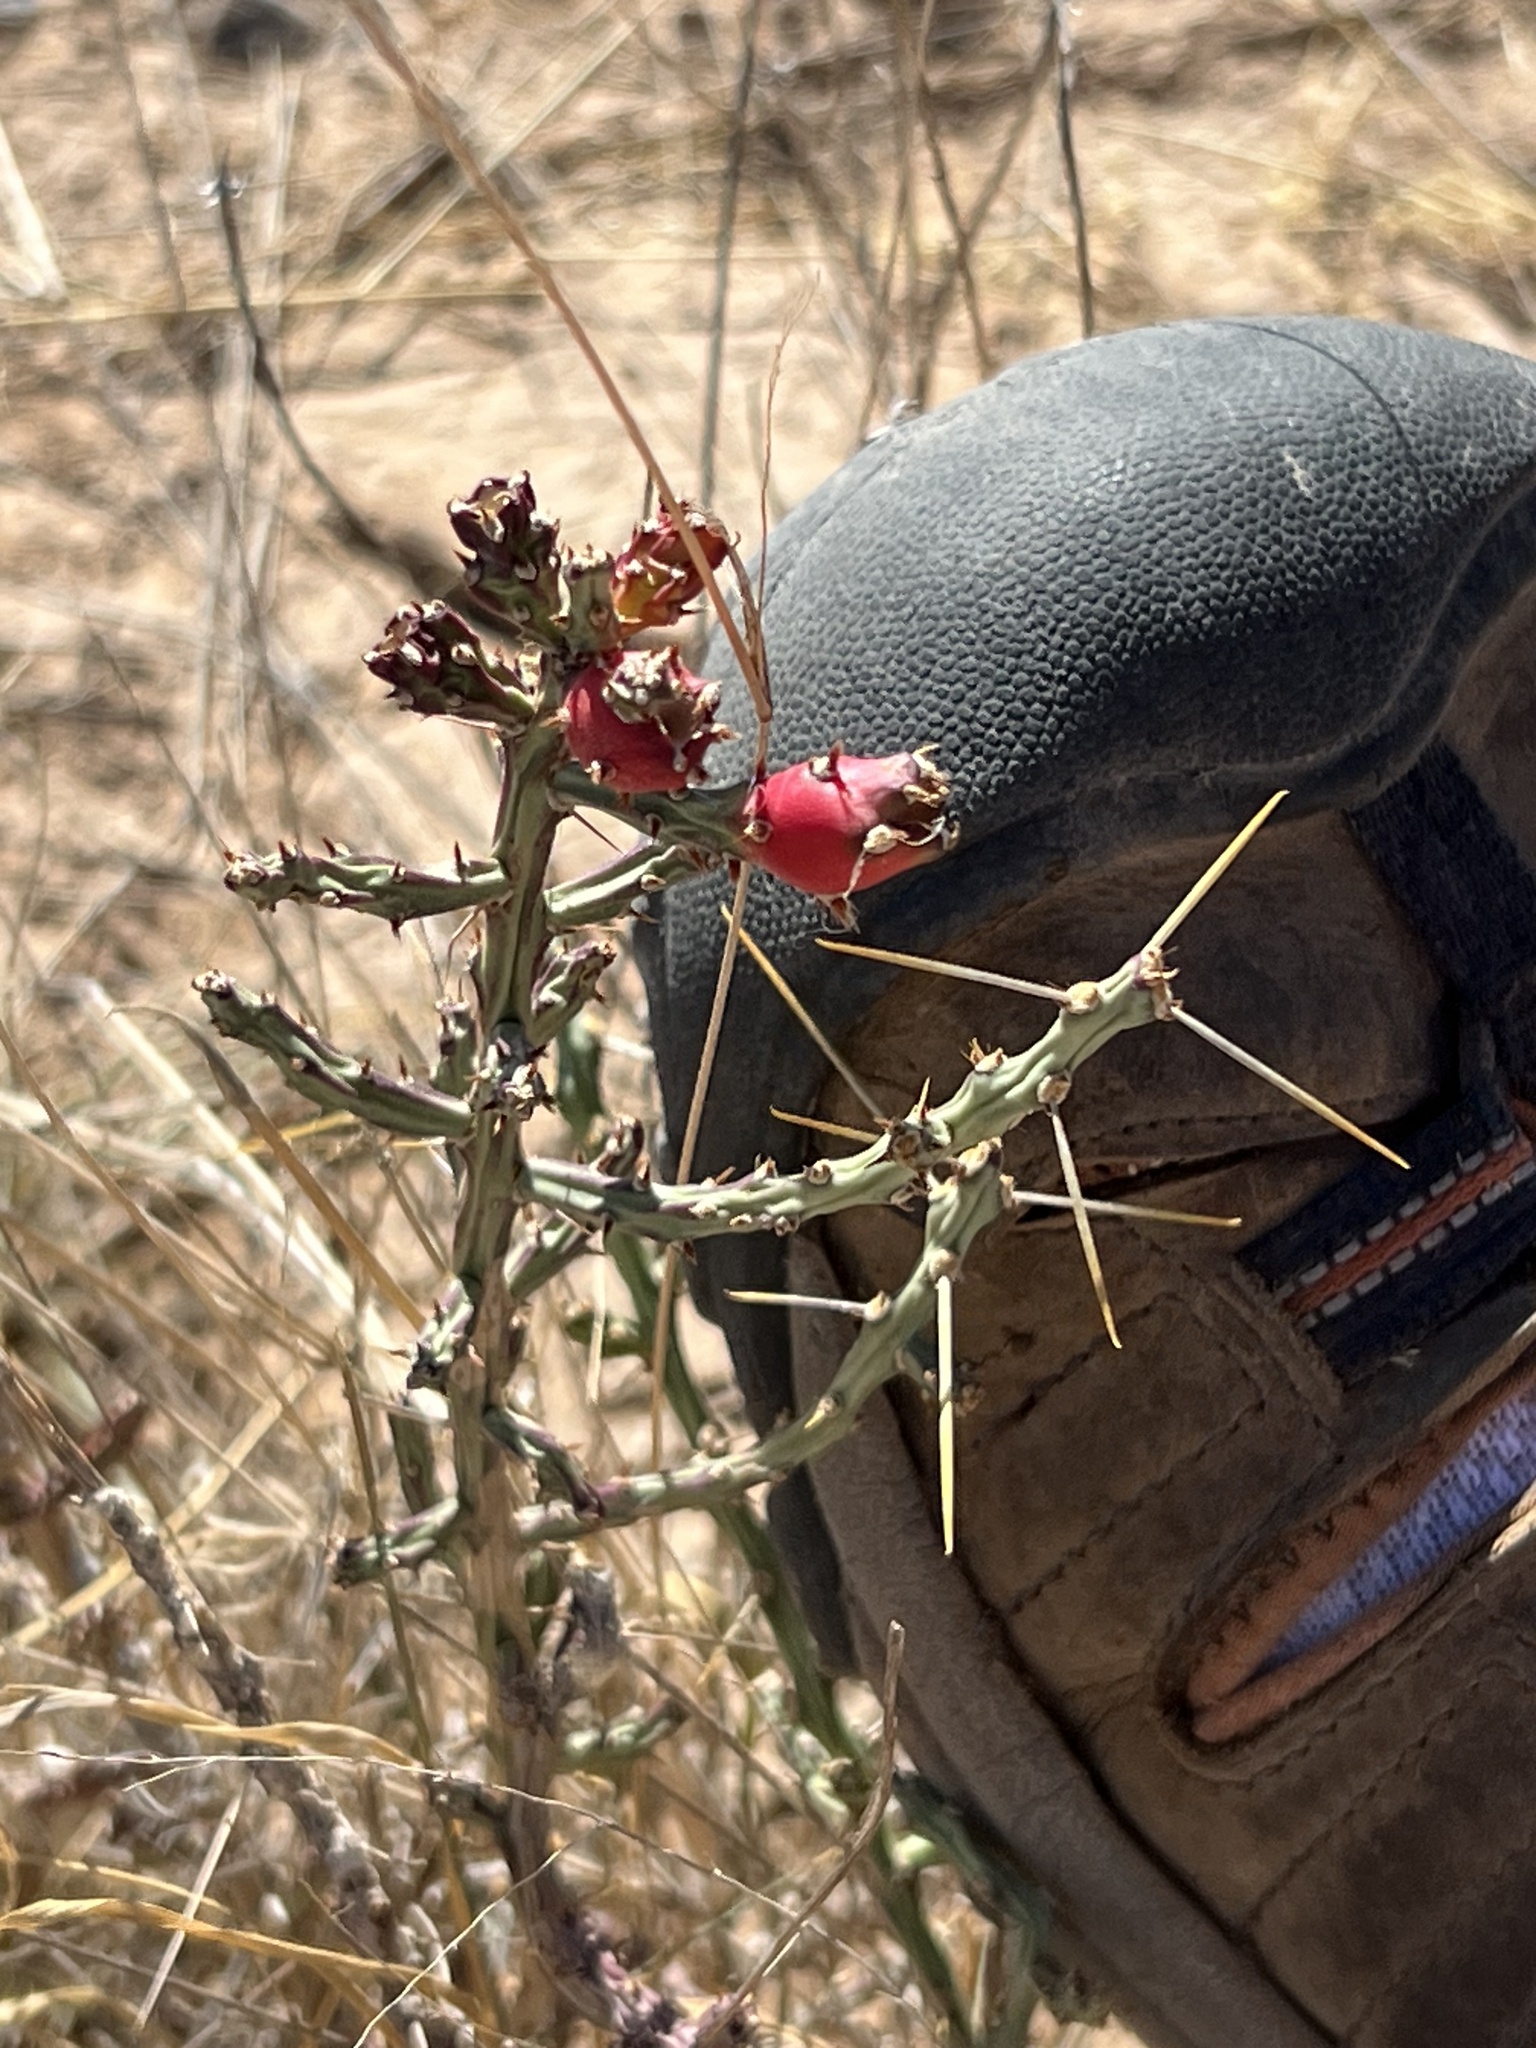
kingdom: Plantae
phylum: Tracheophyta
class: Magnoliopsida
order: Caryophyllales
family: Cactaceae
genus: Cylindropuntia
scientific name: Cylindropuntia leptocaulis
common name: Christmas cactus
